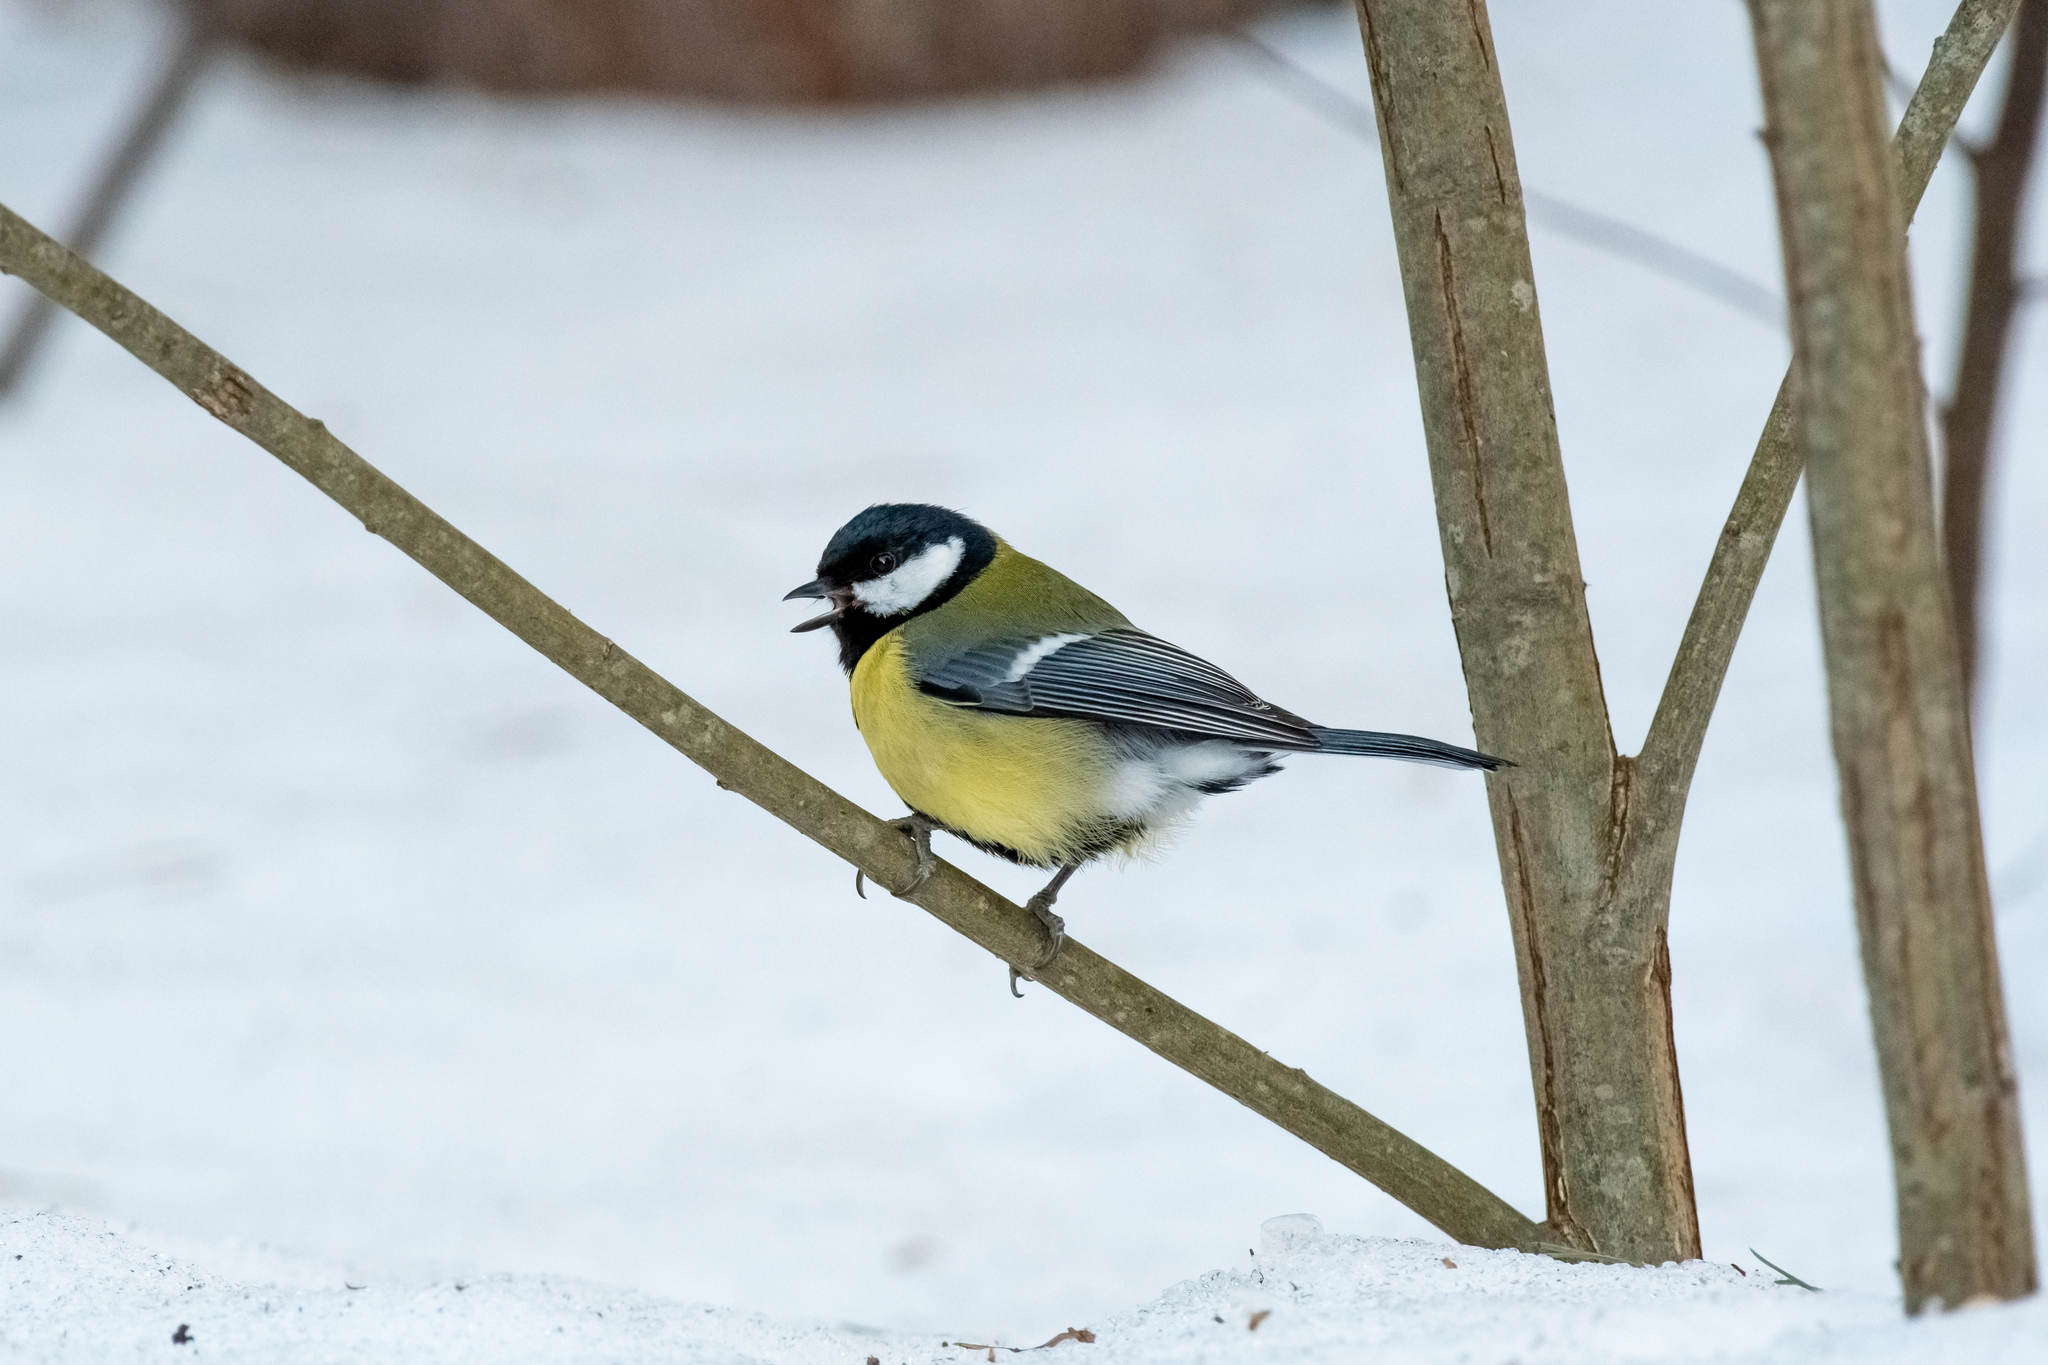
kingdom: Animalia
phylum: Chordata
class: Aves
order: Passeriformes
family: Paridae
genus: Parus
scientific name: Parus major
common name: Great tit
